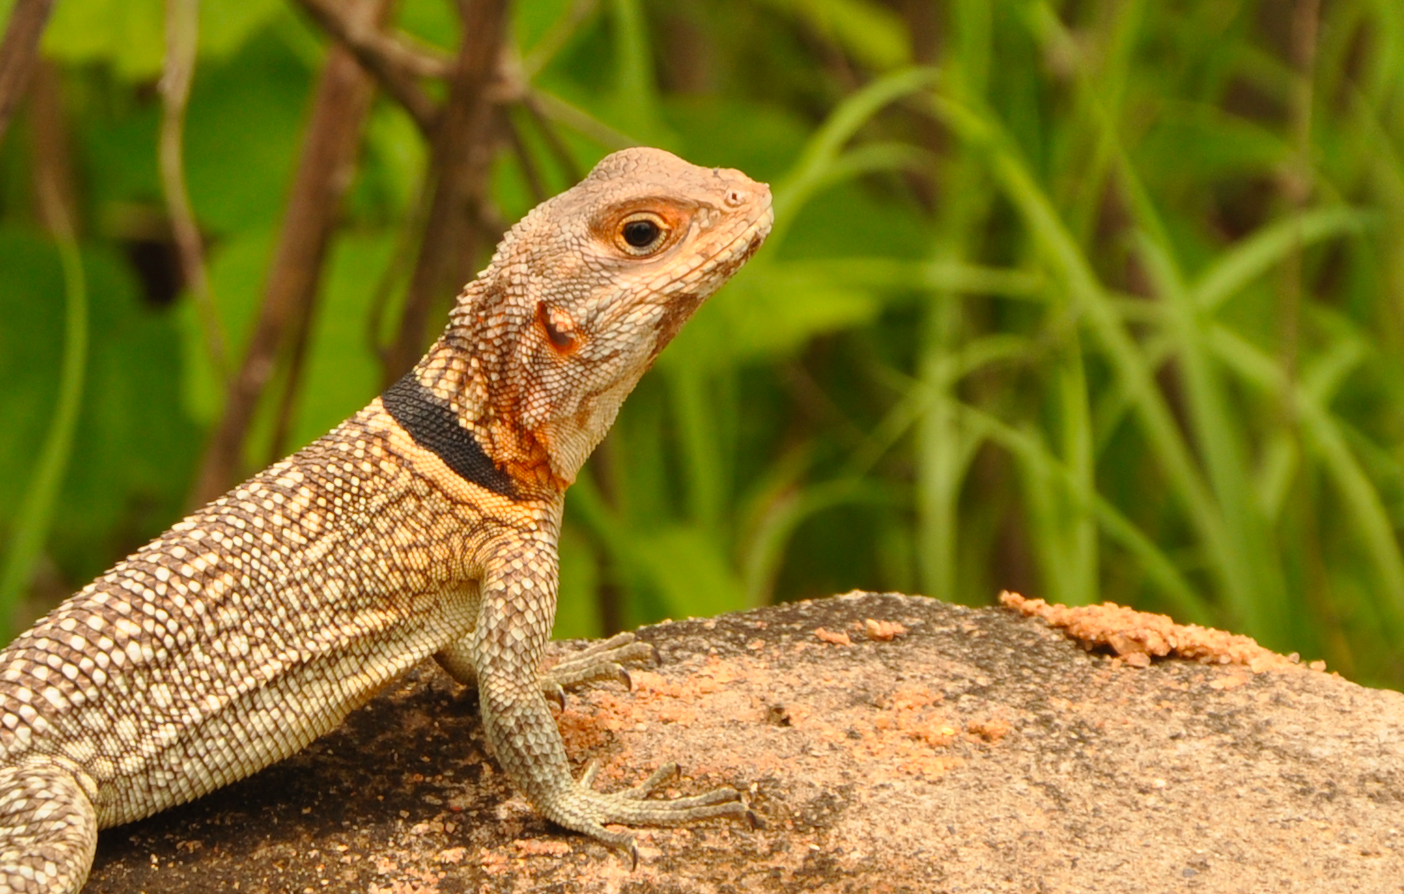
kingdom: Animalia
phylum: Chordata
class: Squamata
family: Opluridae
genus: Oplurus
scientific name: Oplurus cuvieri
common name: Cuvier's madagascar swift
